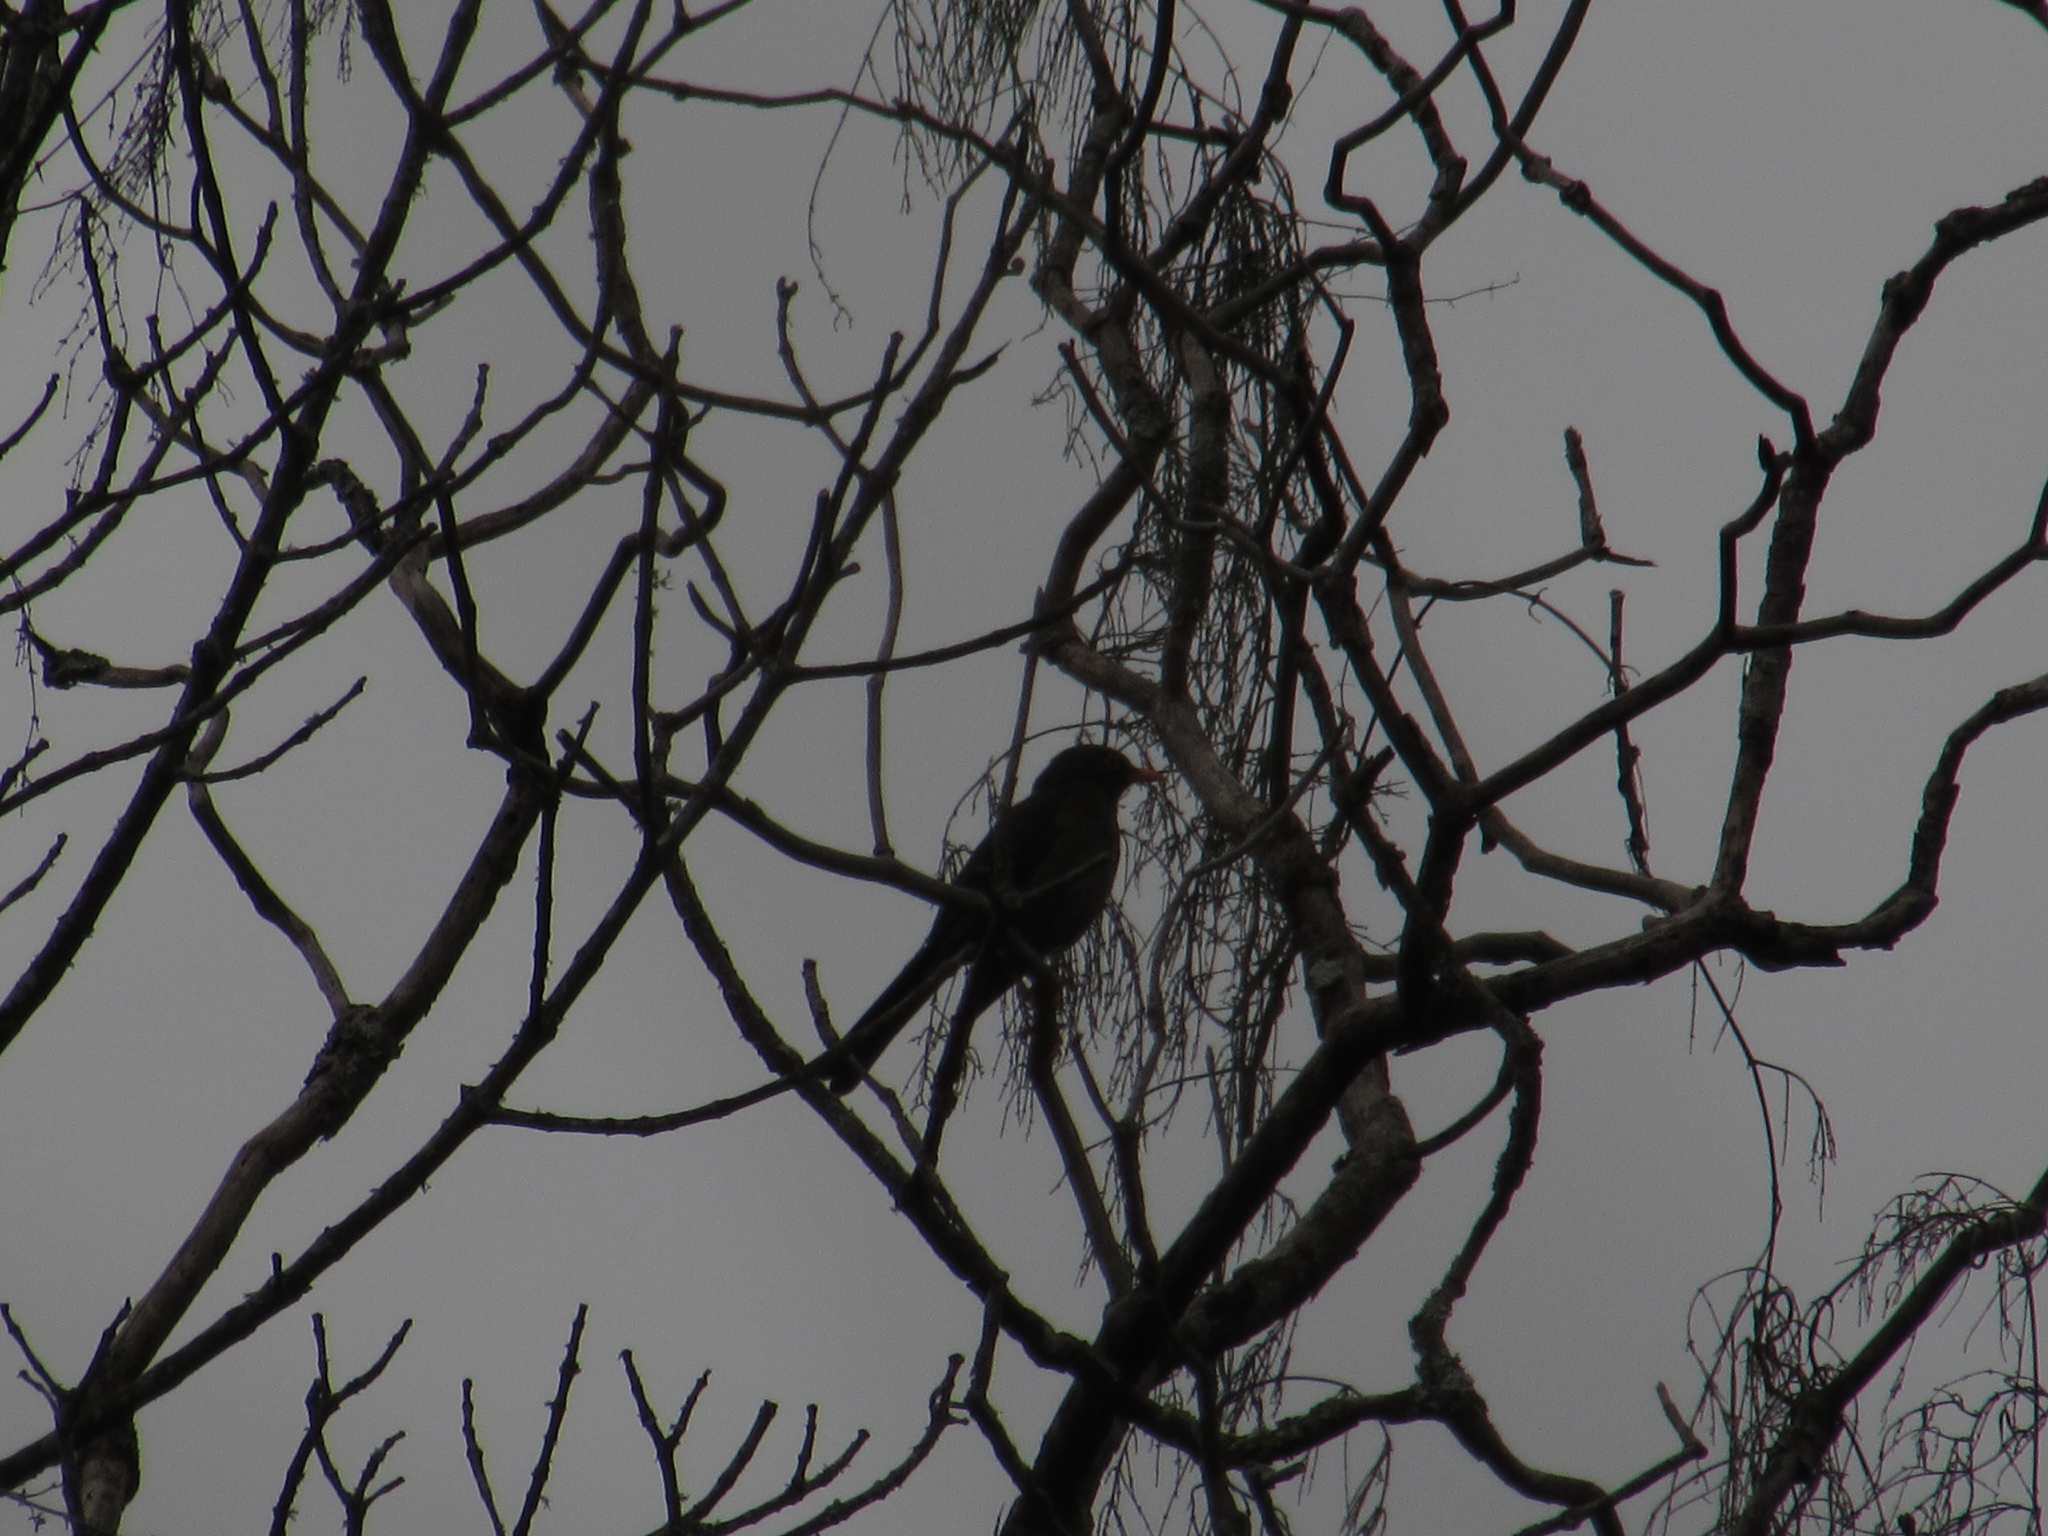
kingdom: Animalia
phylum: Chordata
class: Aves
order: Passeriformes
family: Turdidae
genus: Turdus
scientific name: Turdus fuscater
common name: Great thrush
